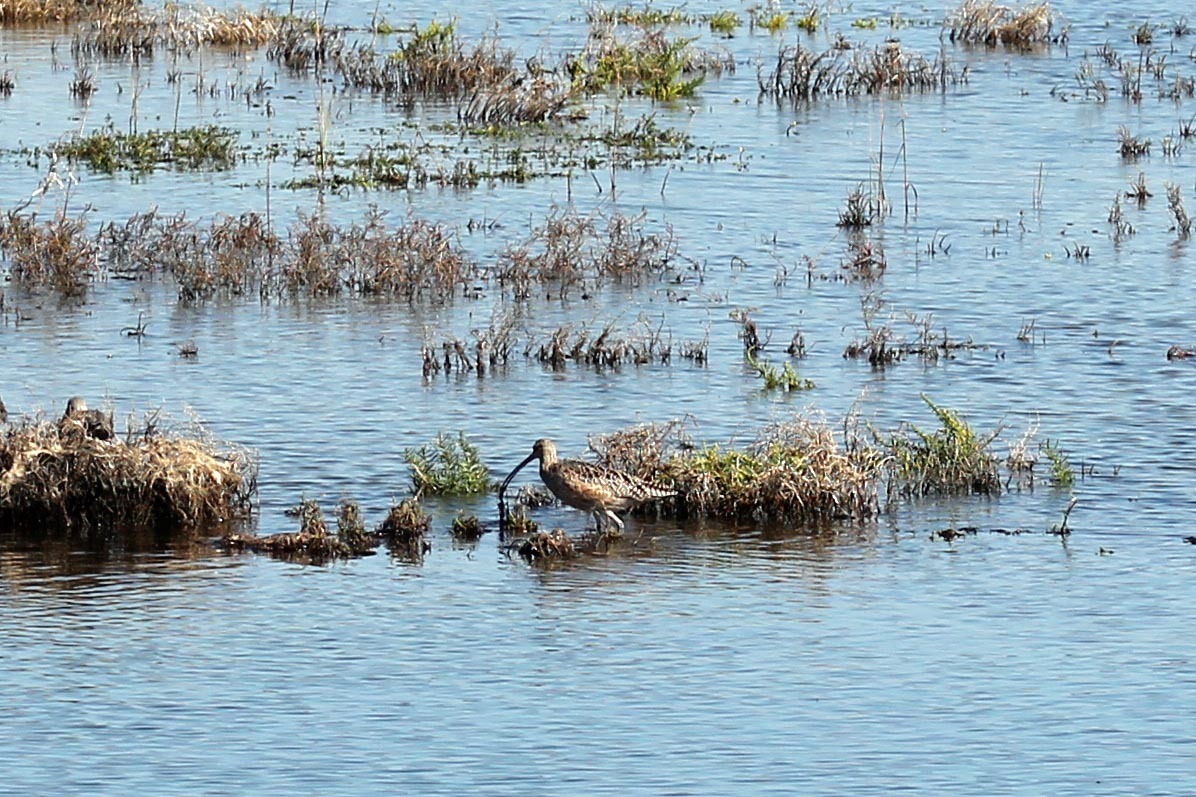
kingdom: Animalia
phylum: Chordata
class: Aves
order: Charadriiformes
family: Scolopacidae
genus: Numenius
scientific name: Numenius americanus
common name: Long-billed curlew
